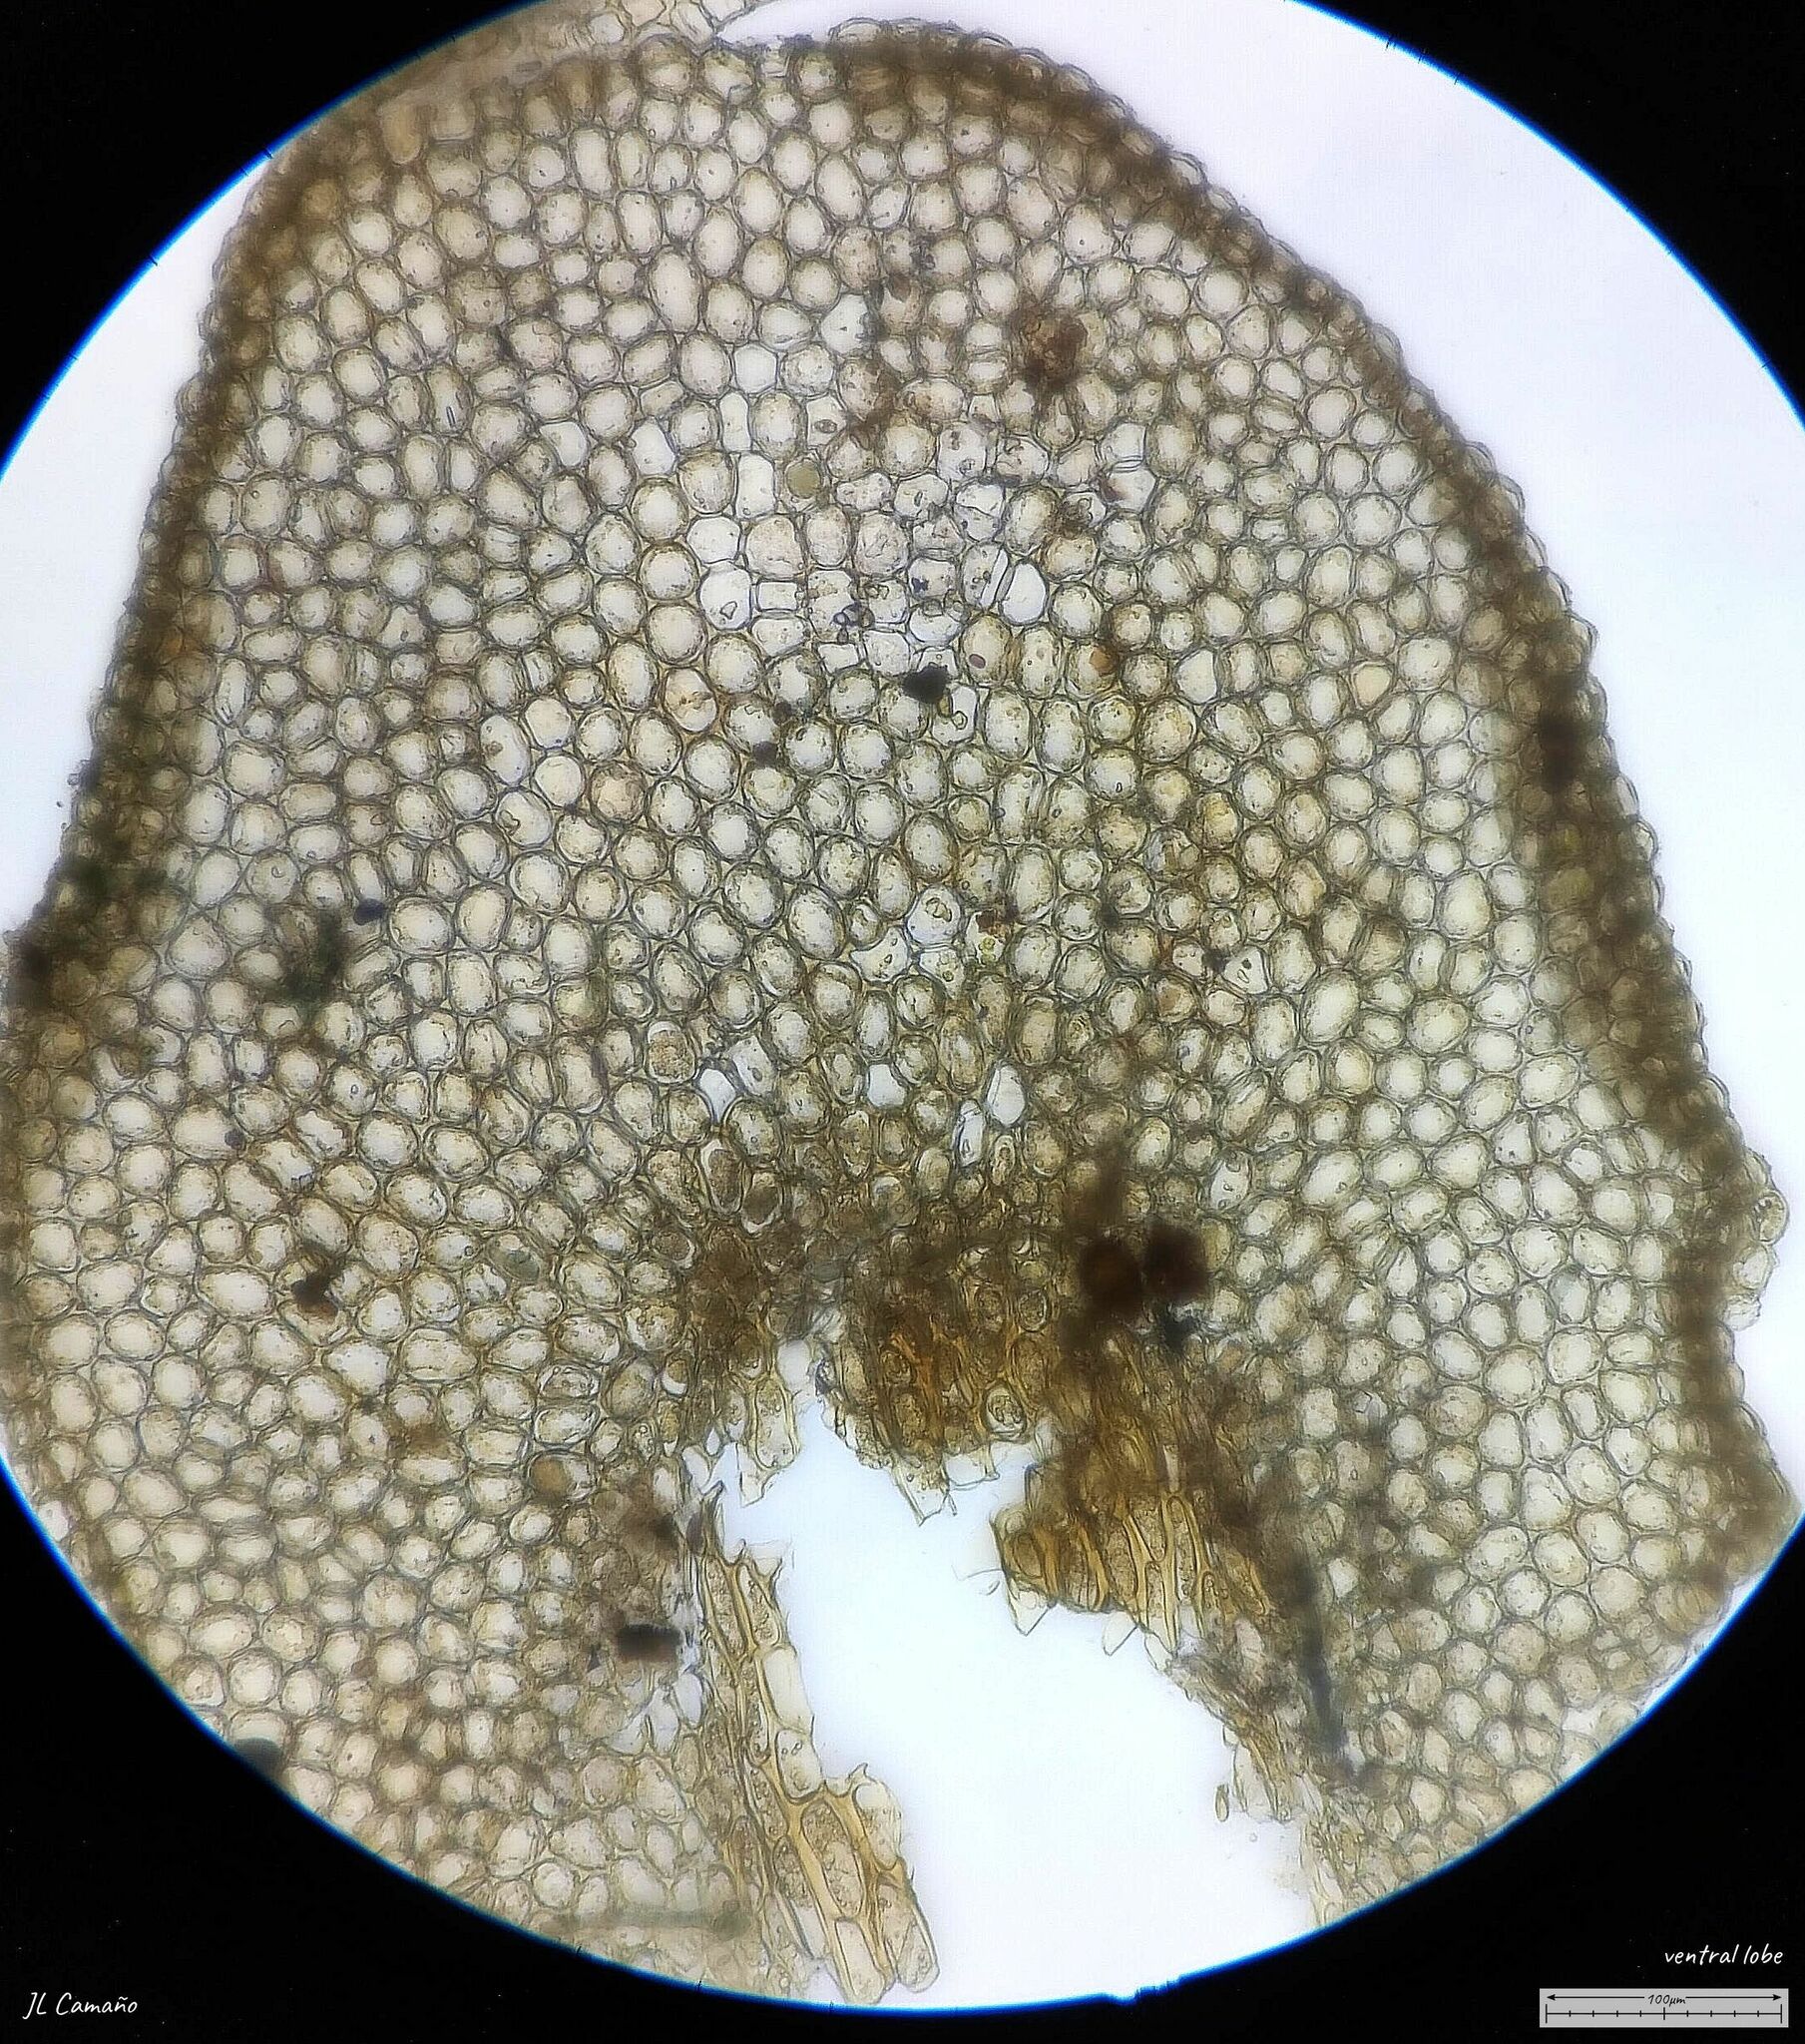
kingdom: Plantae
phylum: Marchantiophyta
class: Jungermanniopsida
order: Porellales
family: Porellaceae
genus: Porella
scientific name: Porella platyphylla
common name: Wall scalewort
